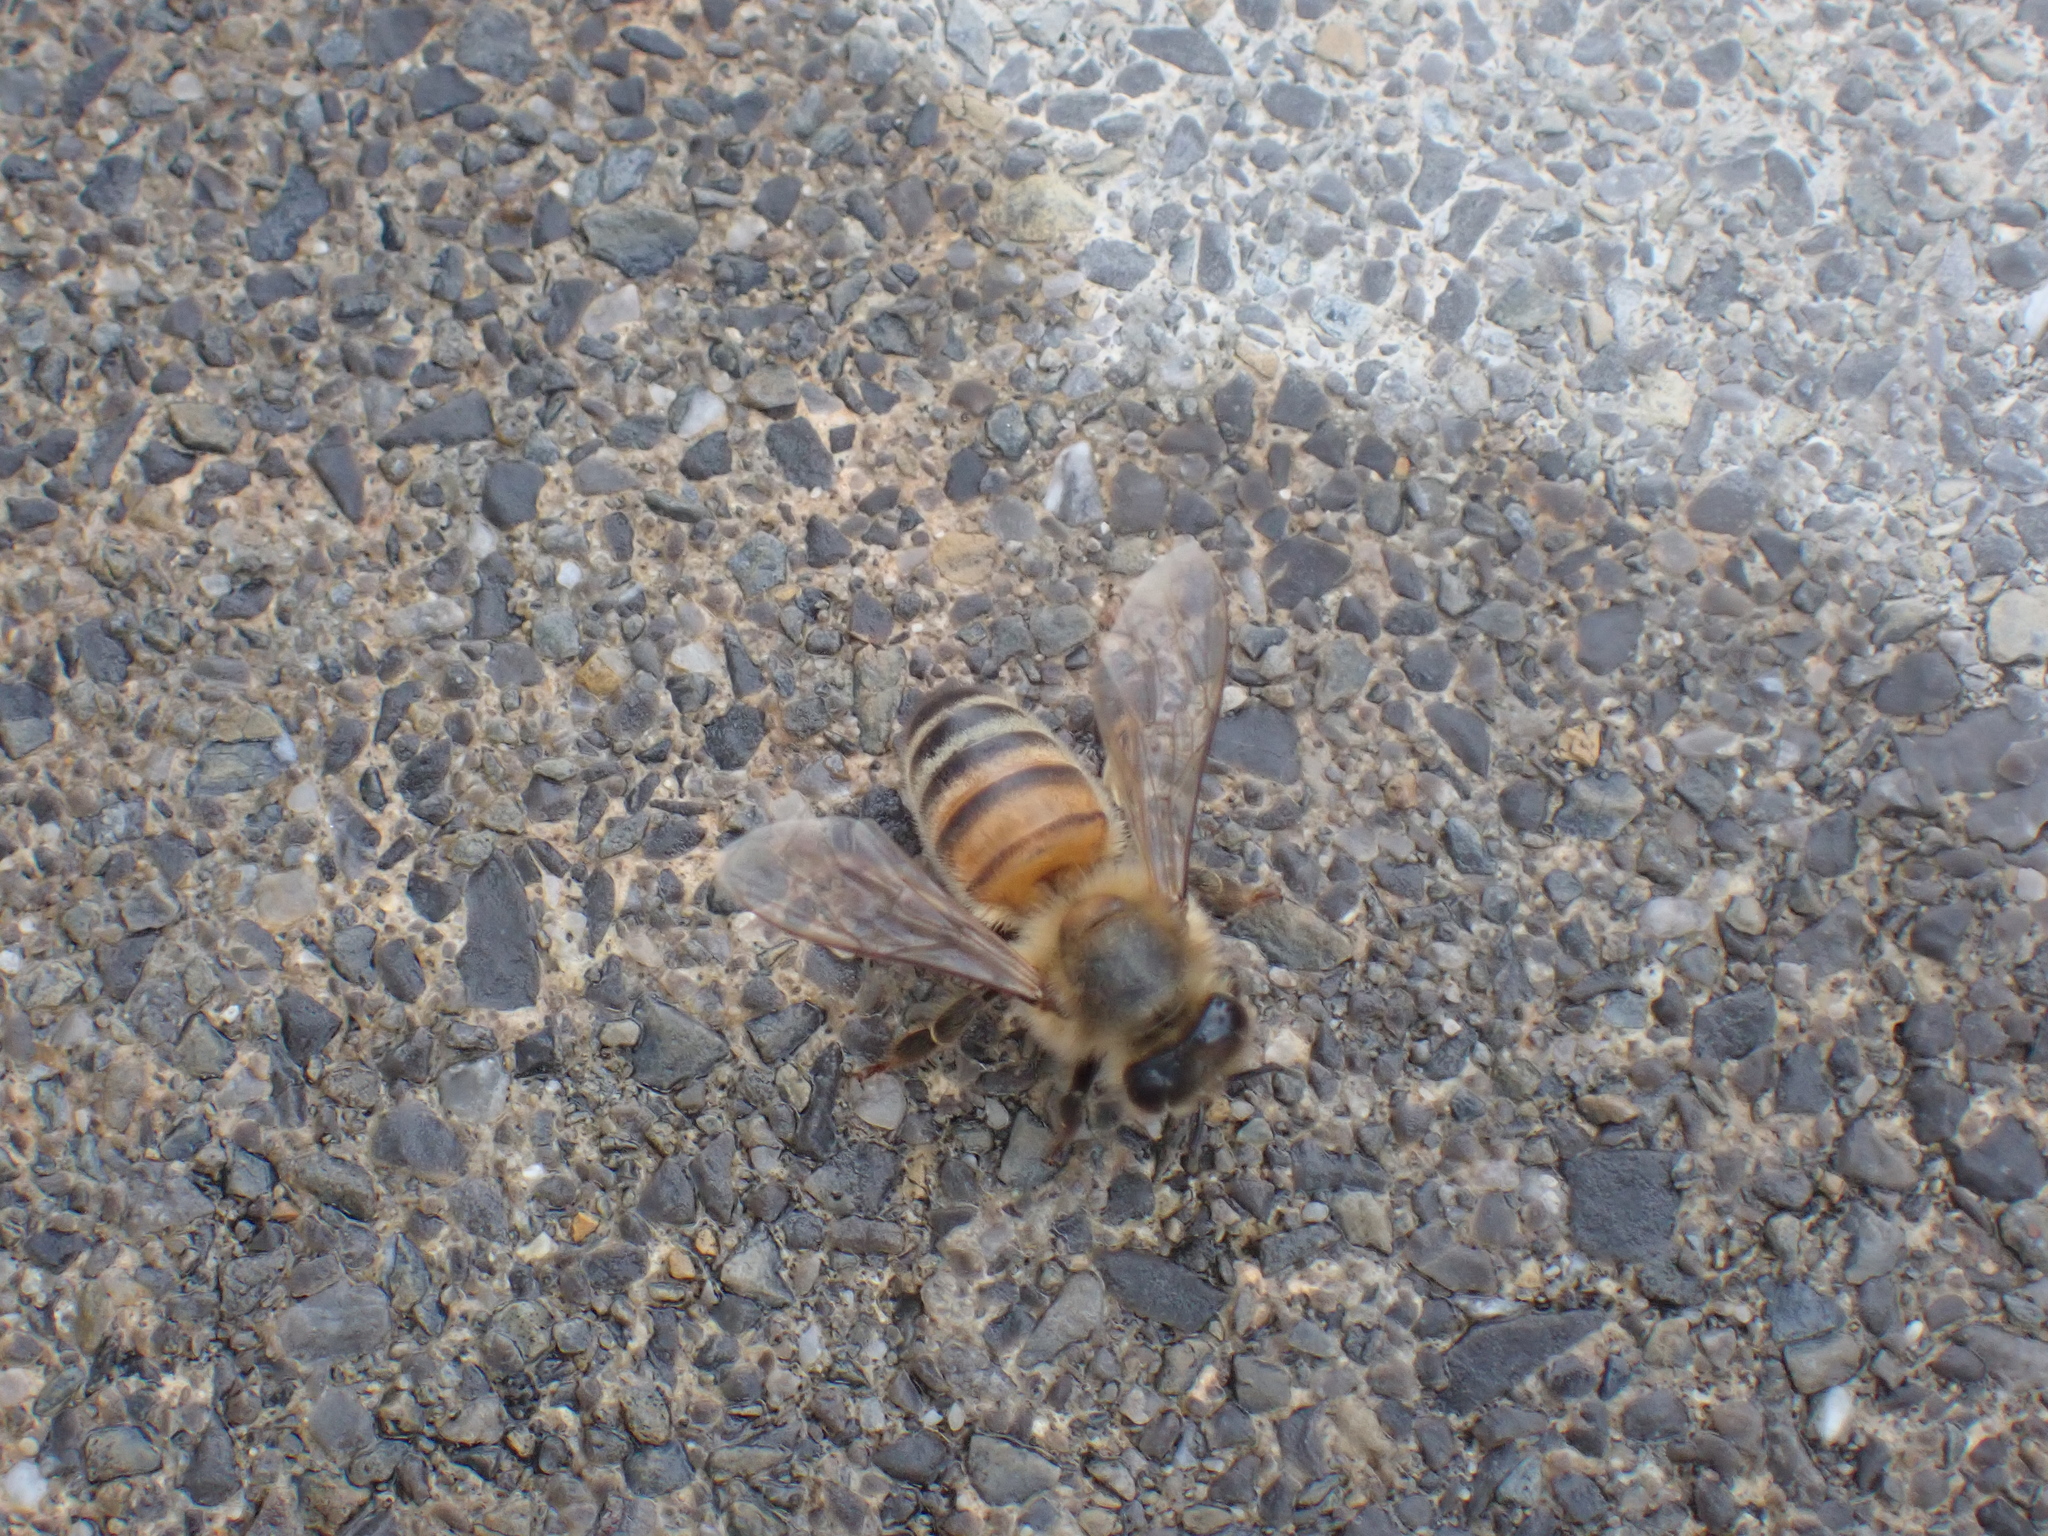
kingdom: Animalia
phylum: Arthropoda
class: Insecta
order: Hymenoptera
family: Apidae
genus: Apis
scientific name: Apis mellifera
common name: Honey bee
